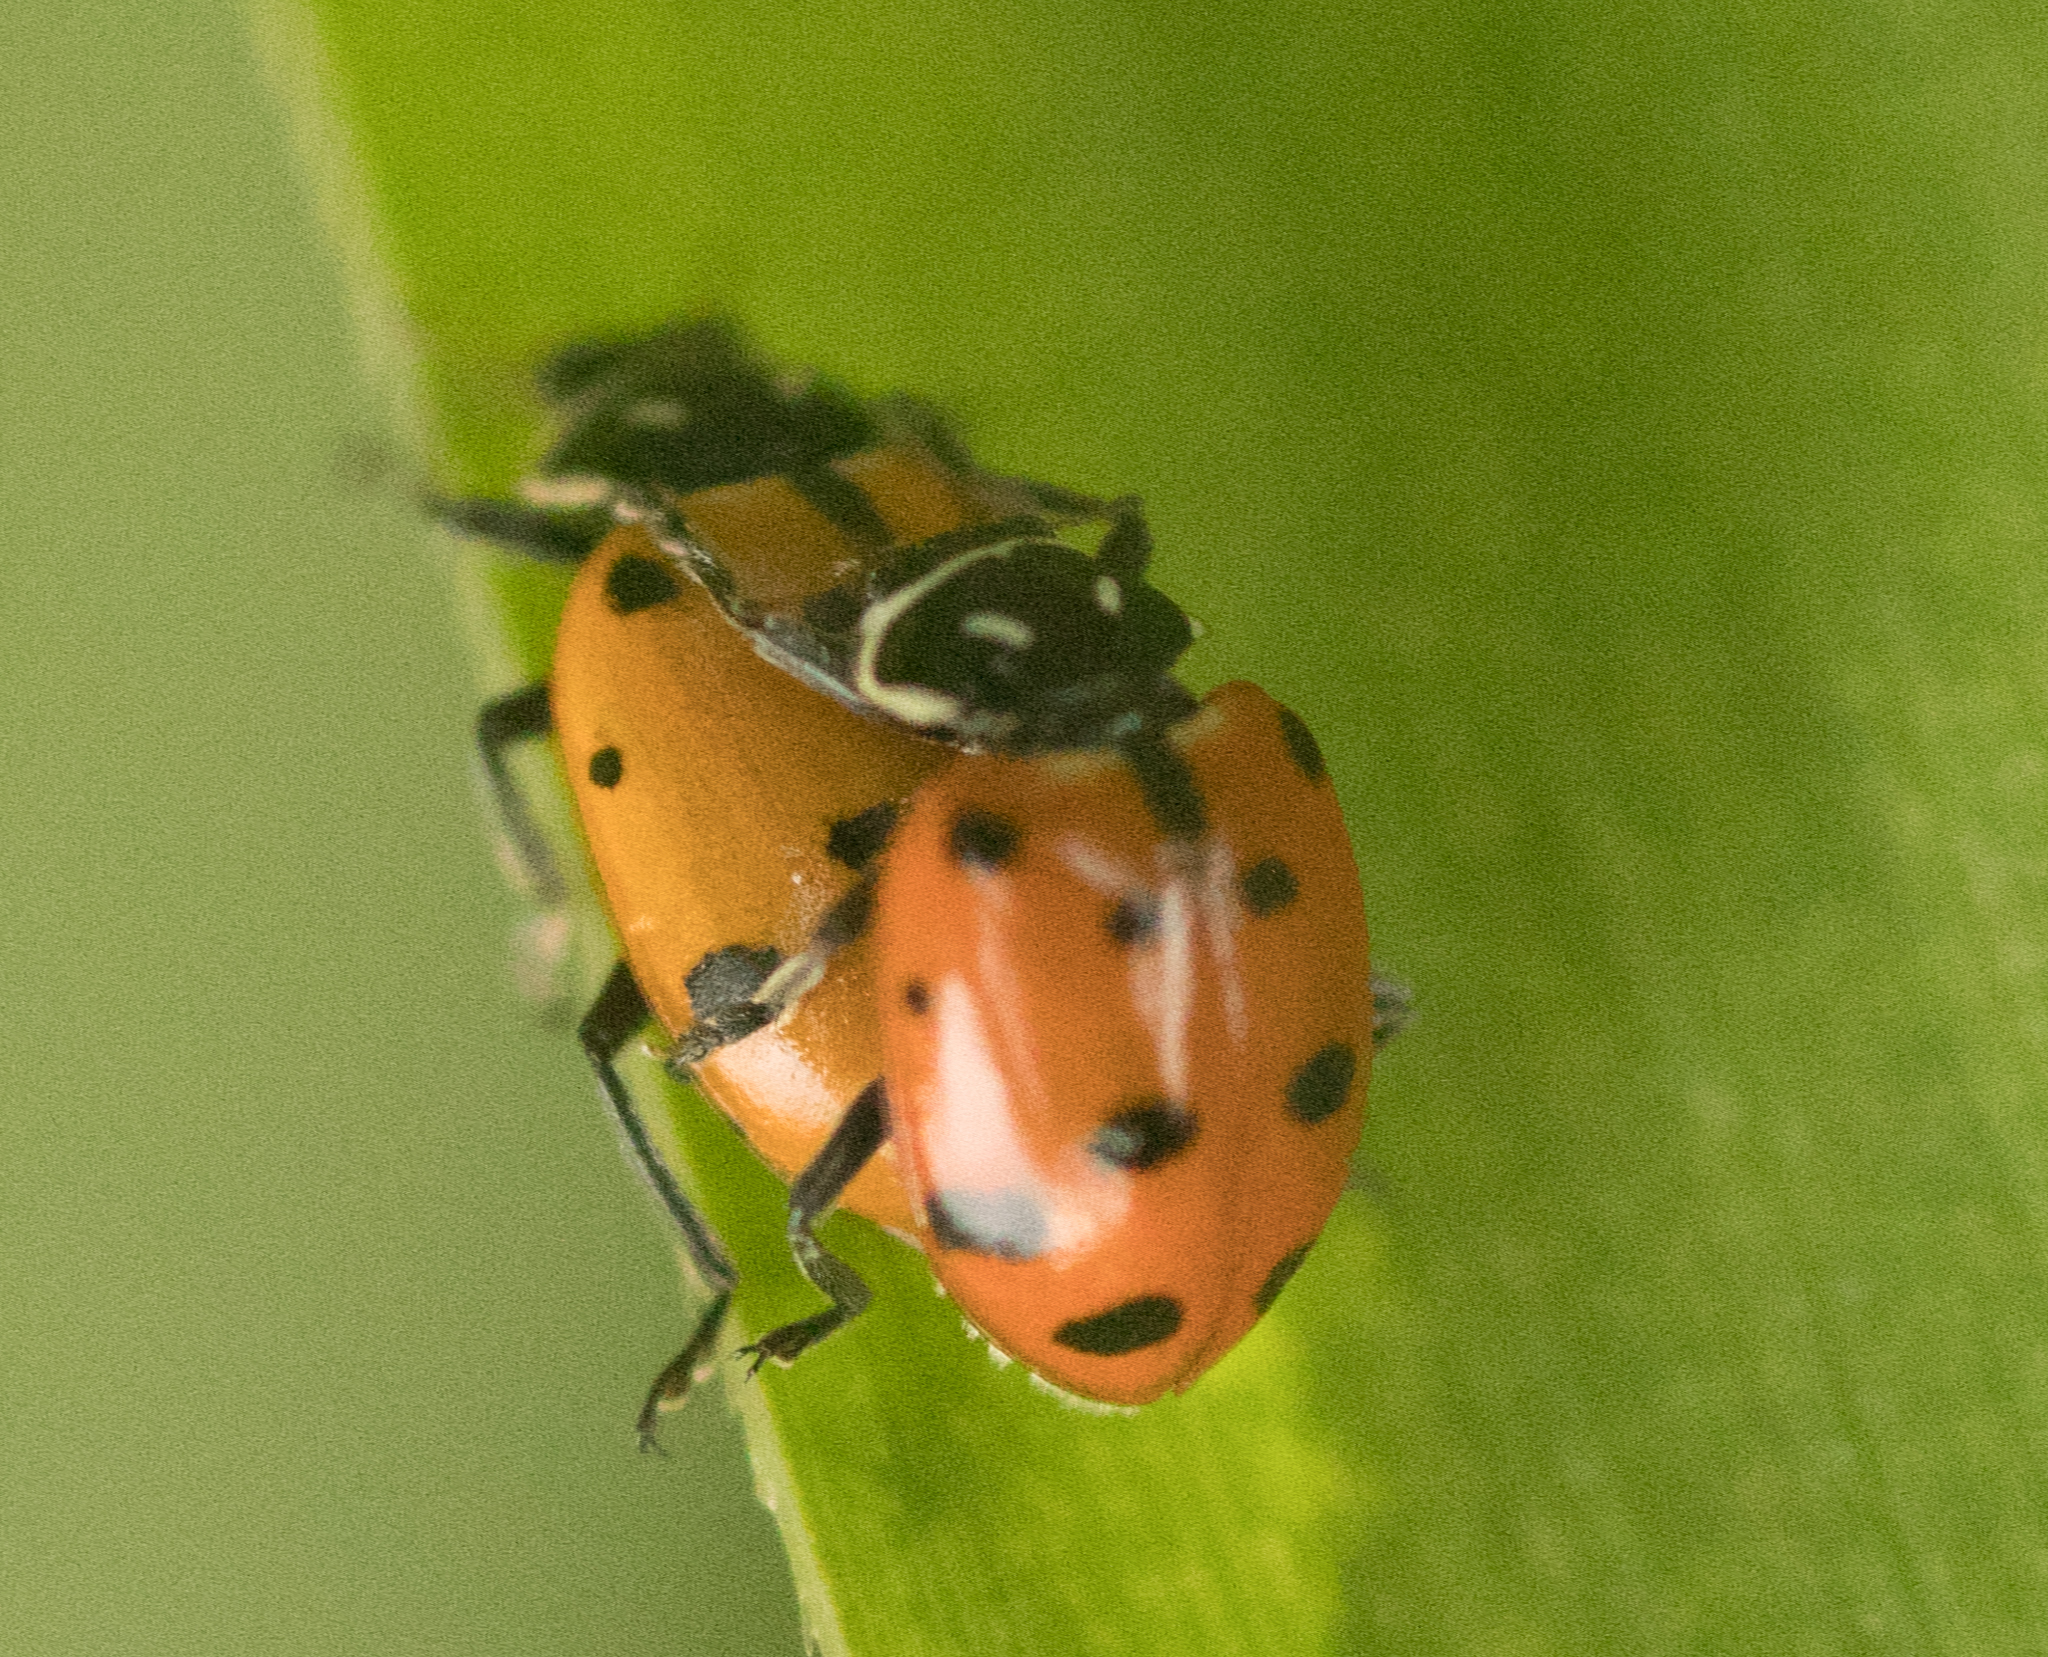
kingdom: Animalia
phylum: Arthropoda
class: Insecta
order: Coleoptera
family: Coccinellidae
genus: Hippodamia
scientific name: Hippodamia convergens
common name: Convergent lady beetle
